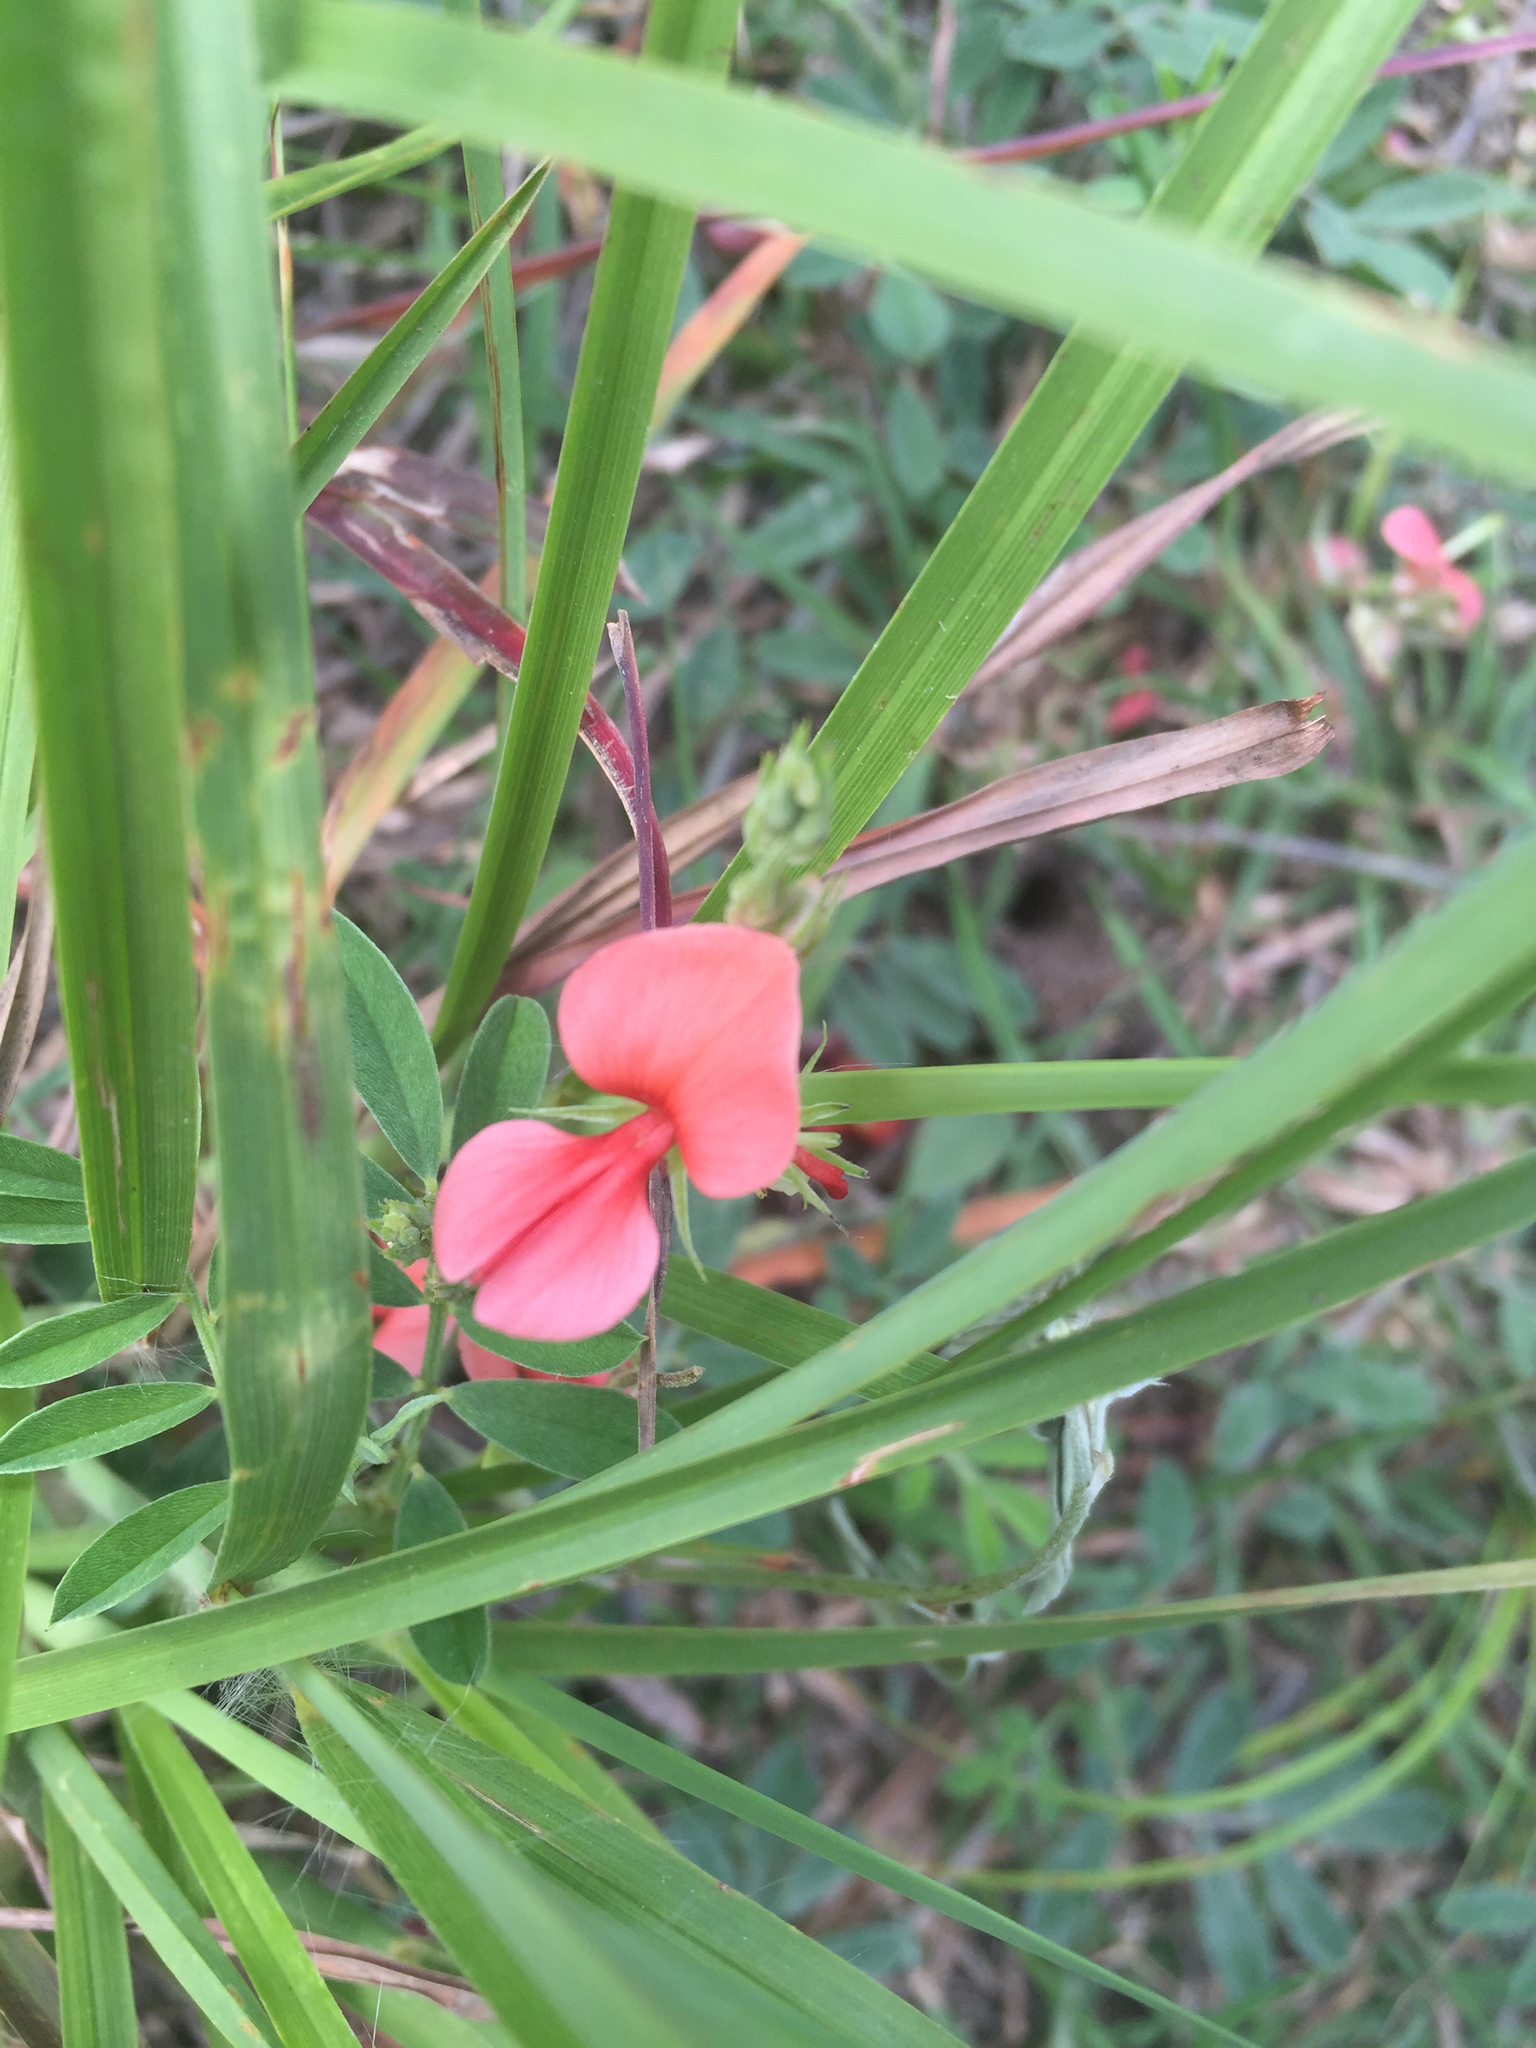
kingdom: Plantae
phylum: Tracheophyta
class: Magnoliopsida
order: Fabales
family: Fabaceae
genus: Indigofera
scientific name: Indigofera miniata
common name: Coast indigo
